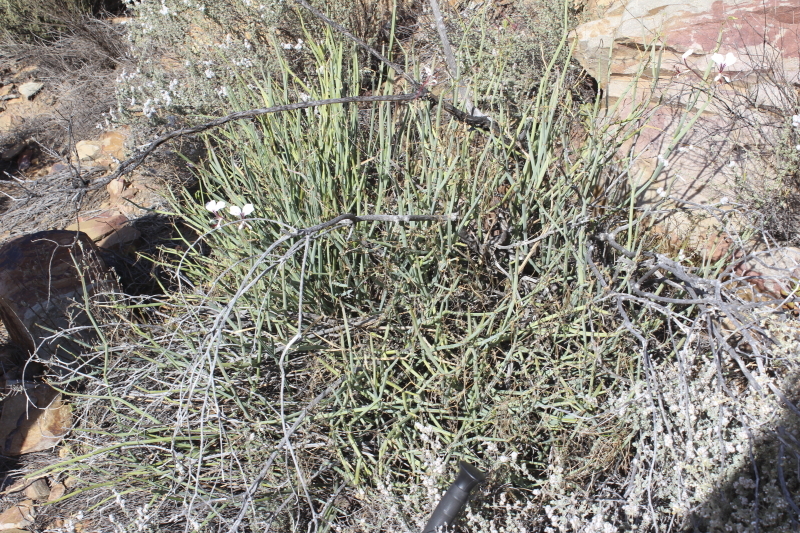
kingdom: Plantae
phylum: Tracheophyta
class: Magnoliopsida
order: Geraniales
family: Geraniaceae
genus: Pelargonium
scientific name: Pelargonium tetragonum
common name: Square-stack crane's-bill
